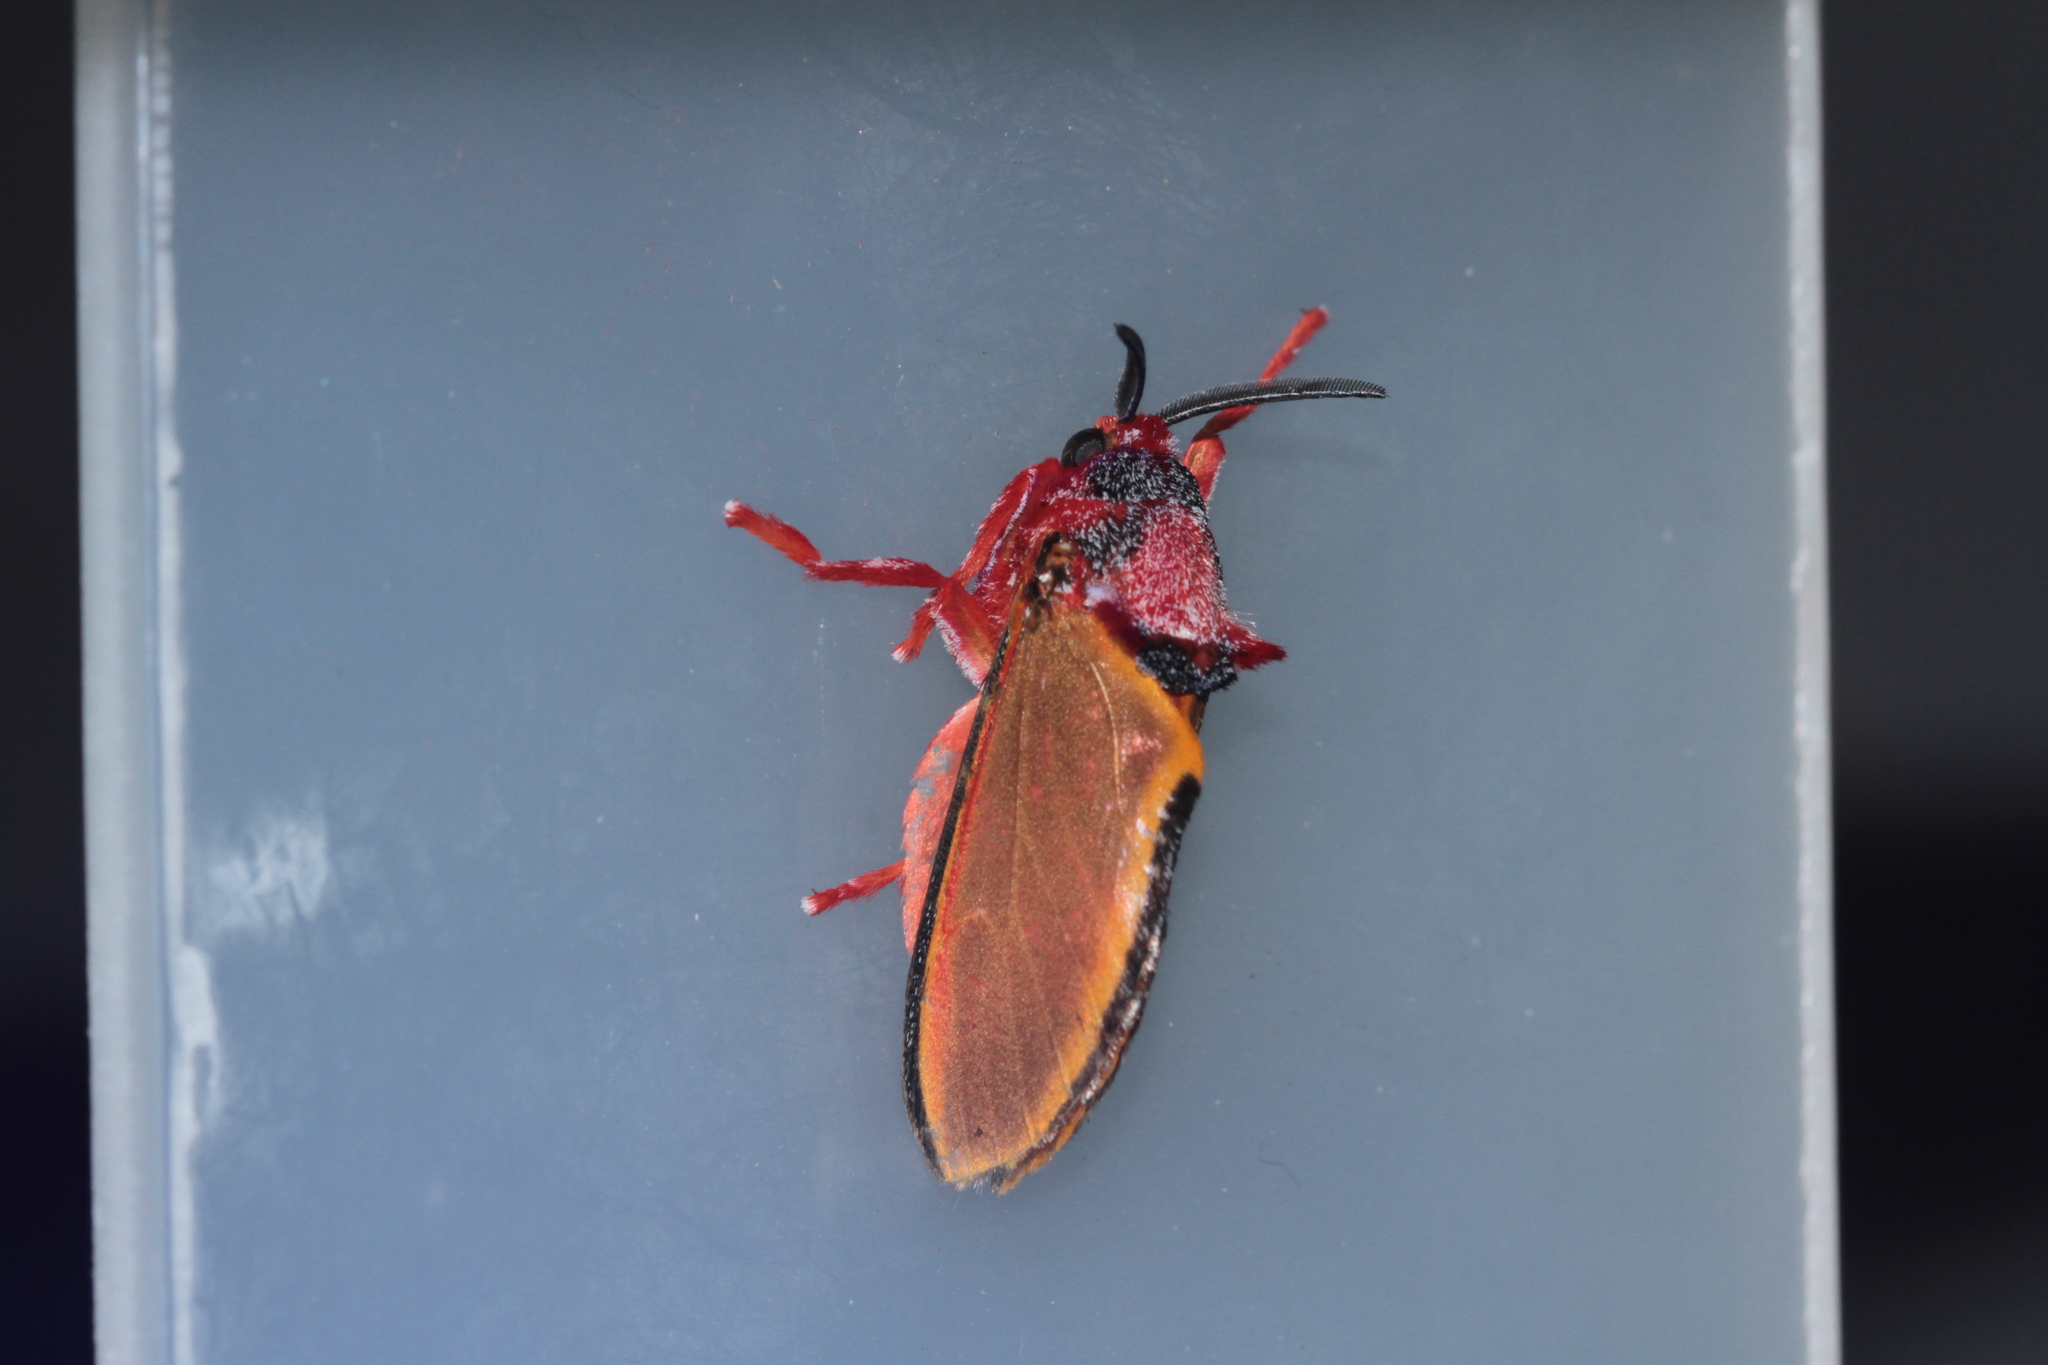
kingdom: Animalia
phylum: Arthropoda
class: Insecta
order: Lepidoptera
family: Megalopygidae
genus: Edebessa
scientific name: Edebessa purens
